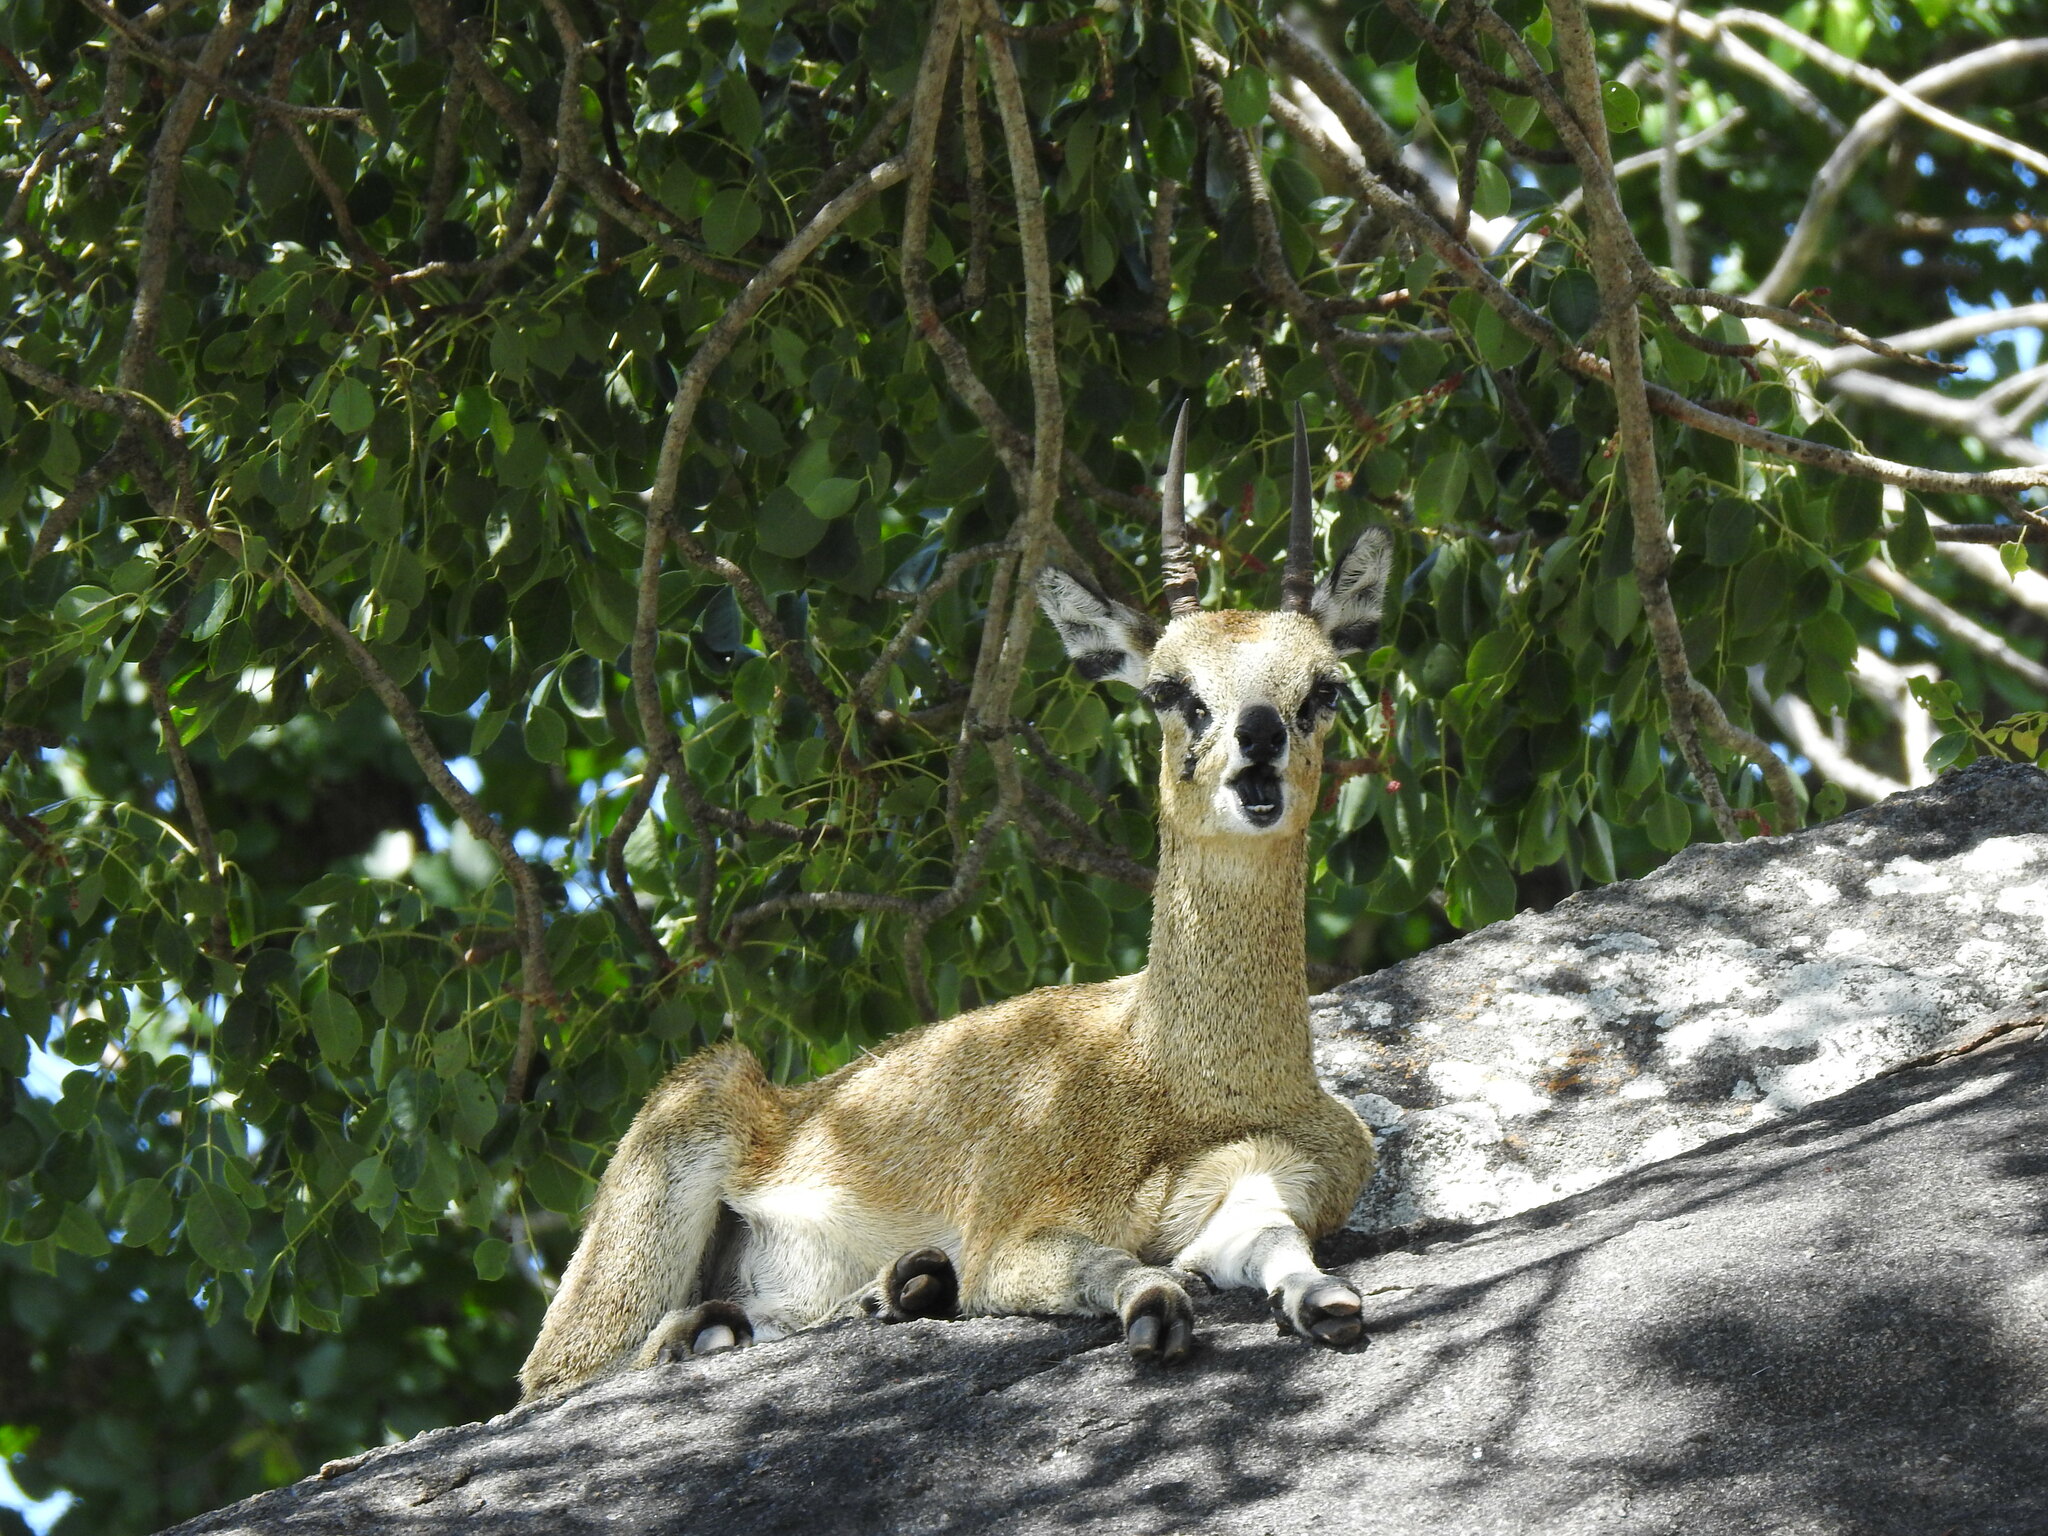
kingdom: Animalia
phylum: Chordata
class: Mammalia
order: Artiodactyla
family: Bovidae
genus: Oreotragus
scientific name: Oreotragus oreotragus
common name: Klipspringer
